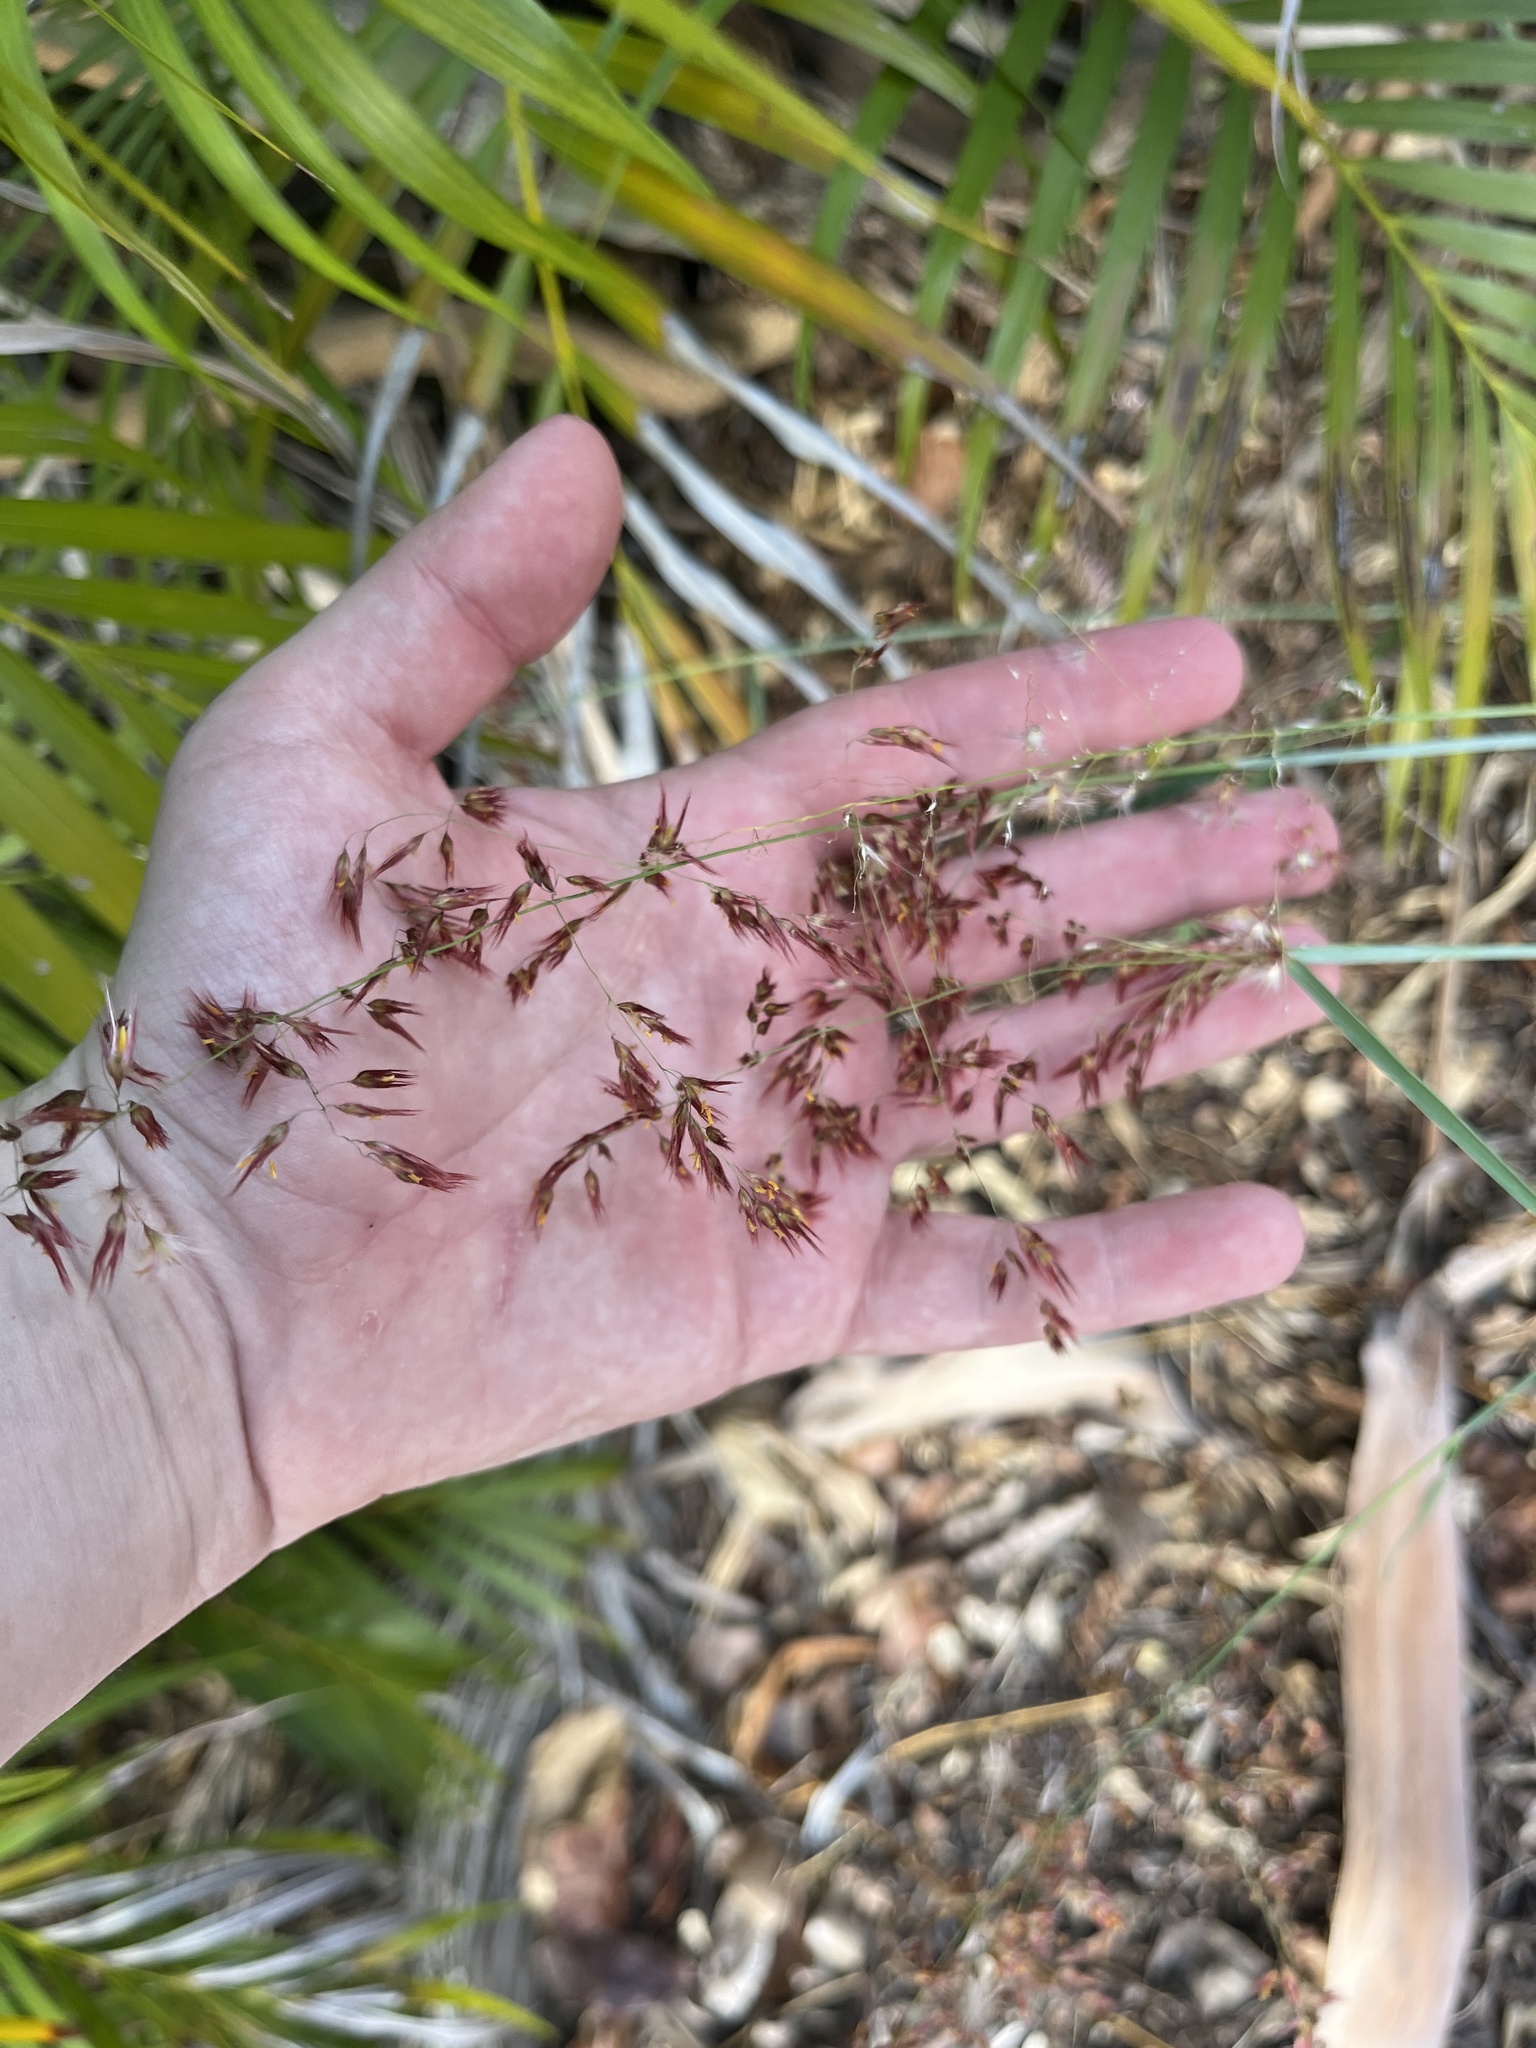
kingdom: Plantae
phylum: Tracheophyta
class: Liliopsida
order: Poales
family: Poaceae
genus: Melinis
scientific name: Melinis repens
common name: Rose natal grass
